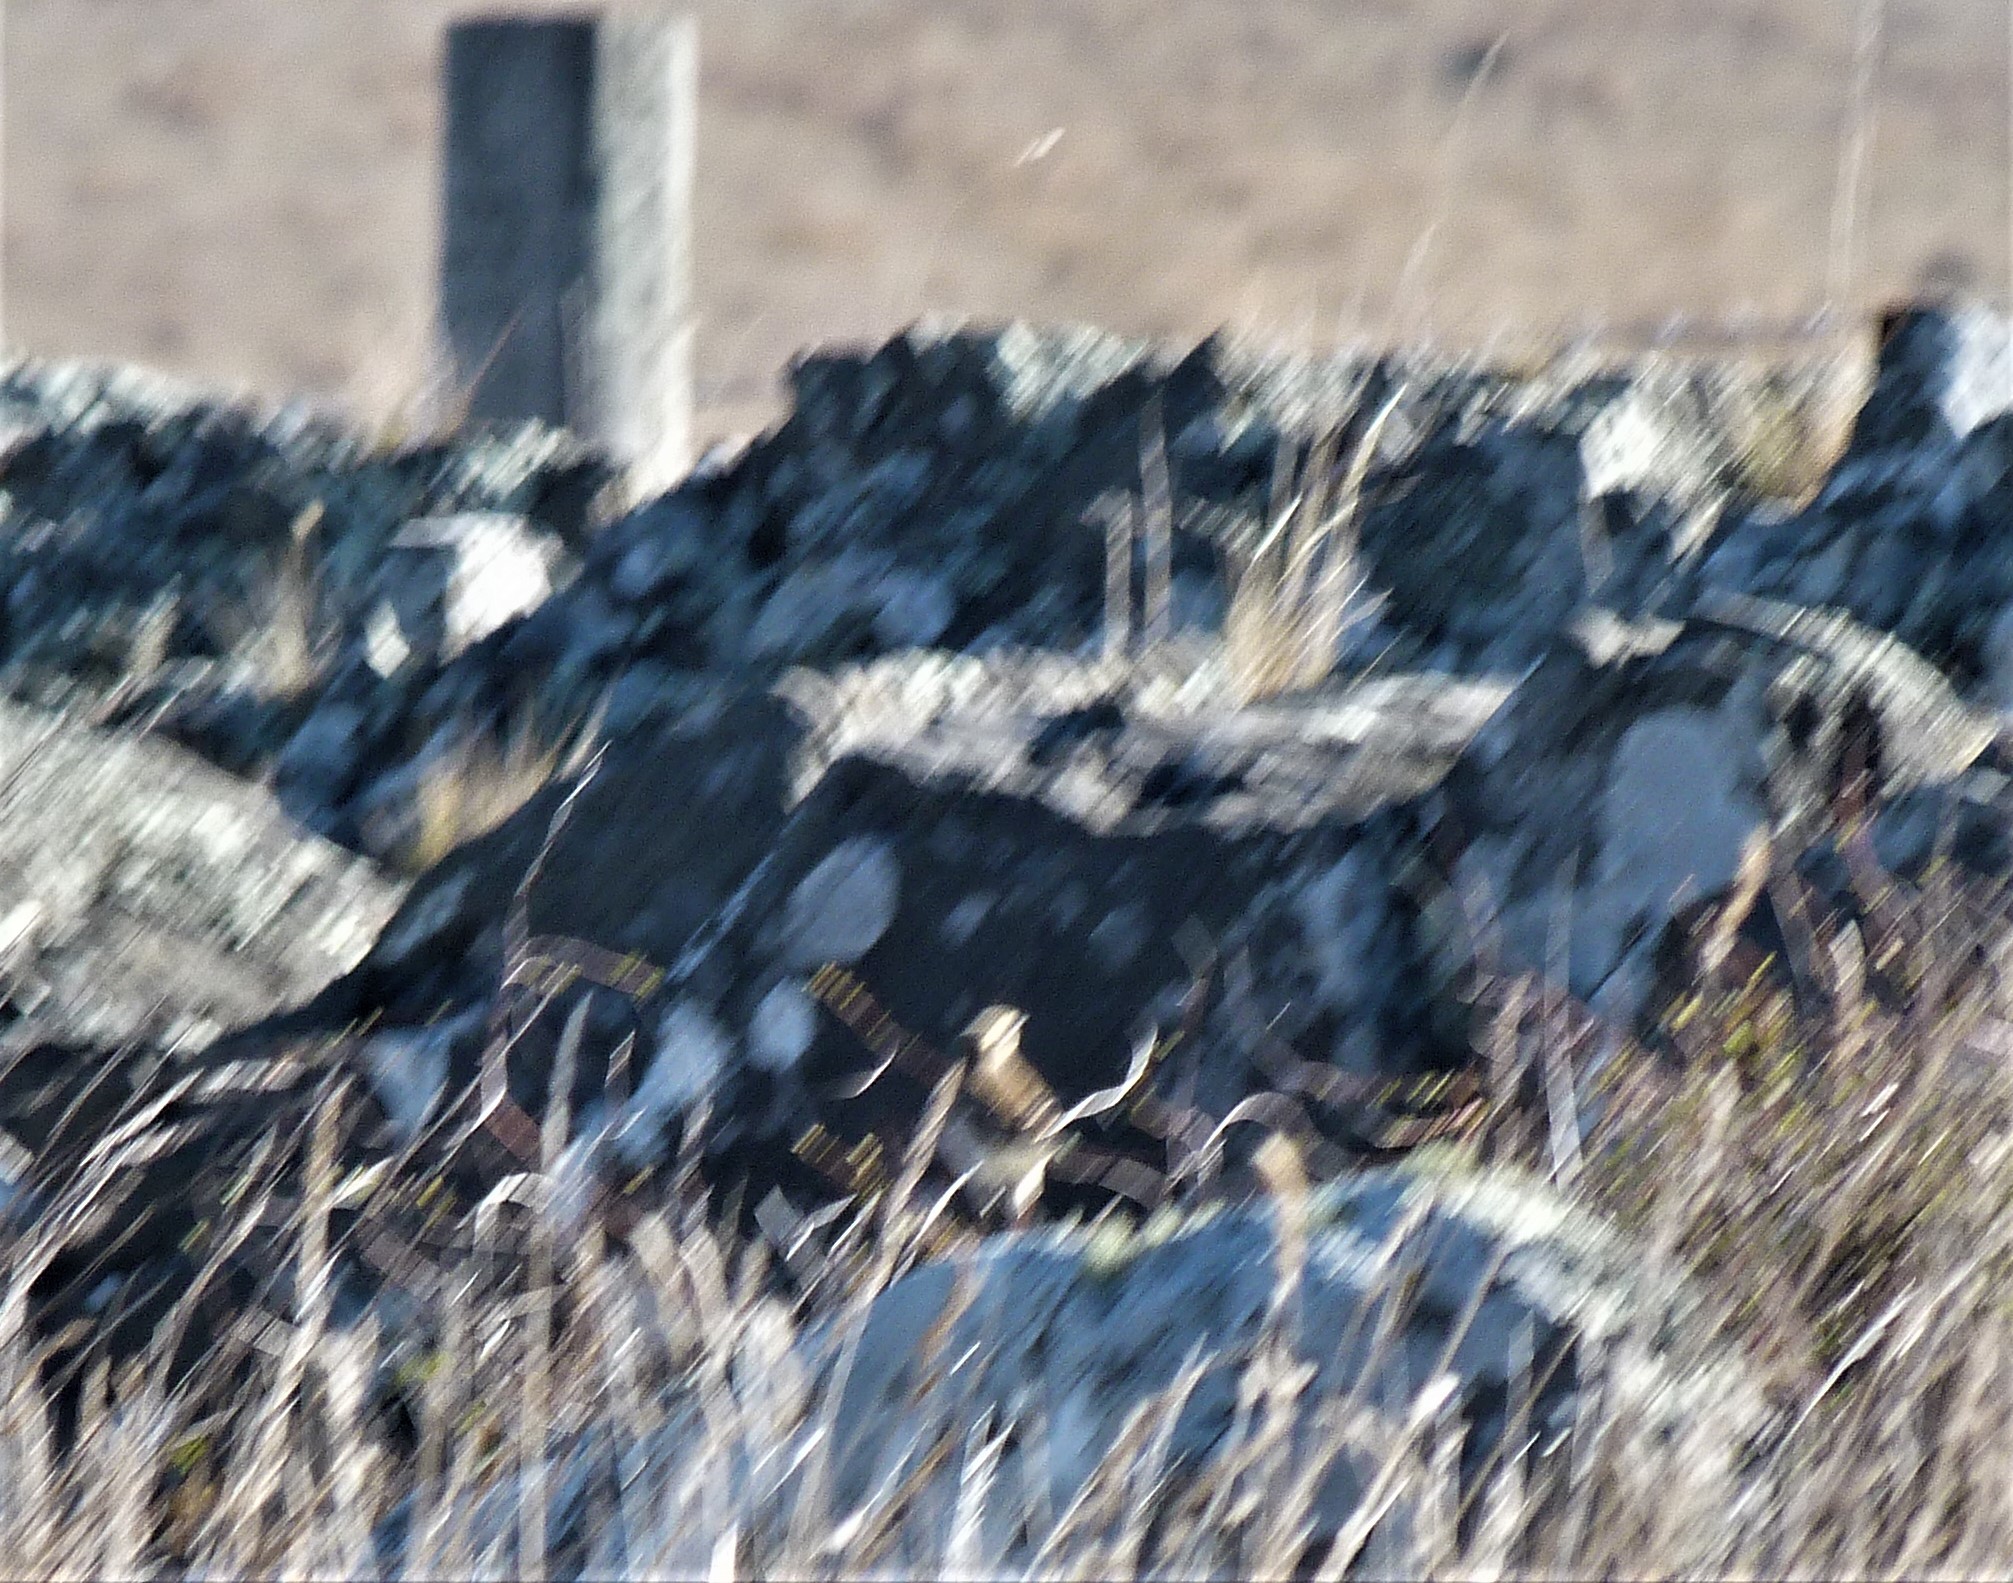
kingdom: Animalia
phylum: Chordata
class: Aves
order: Passeriformes
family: Motacillidae
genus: Anthus
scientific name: Anthus novaeseelandiae
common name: New zealand pipit
